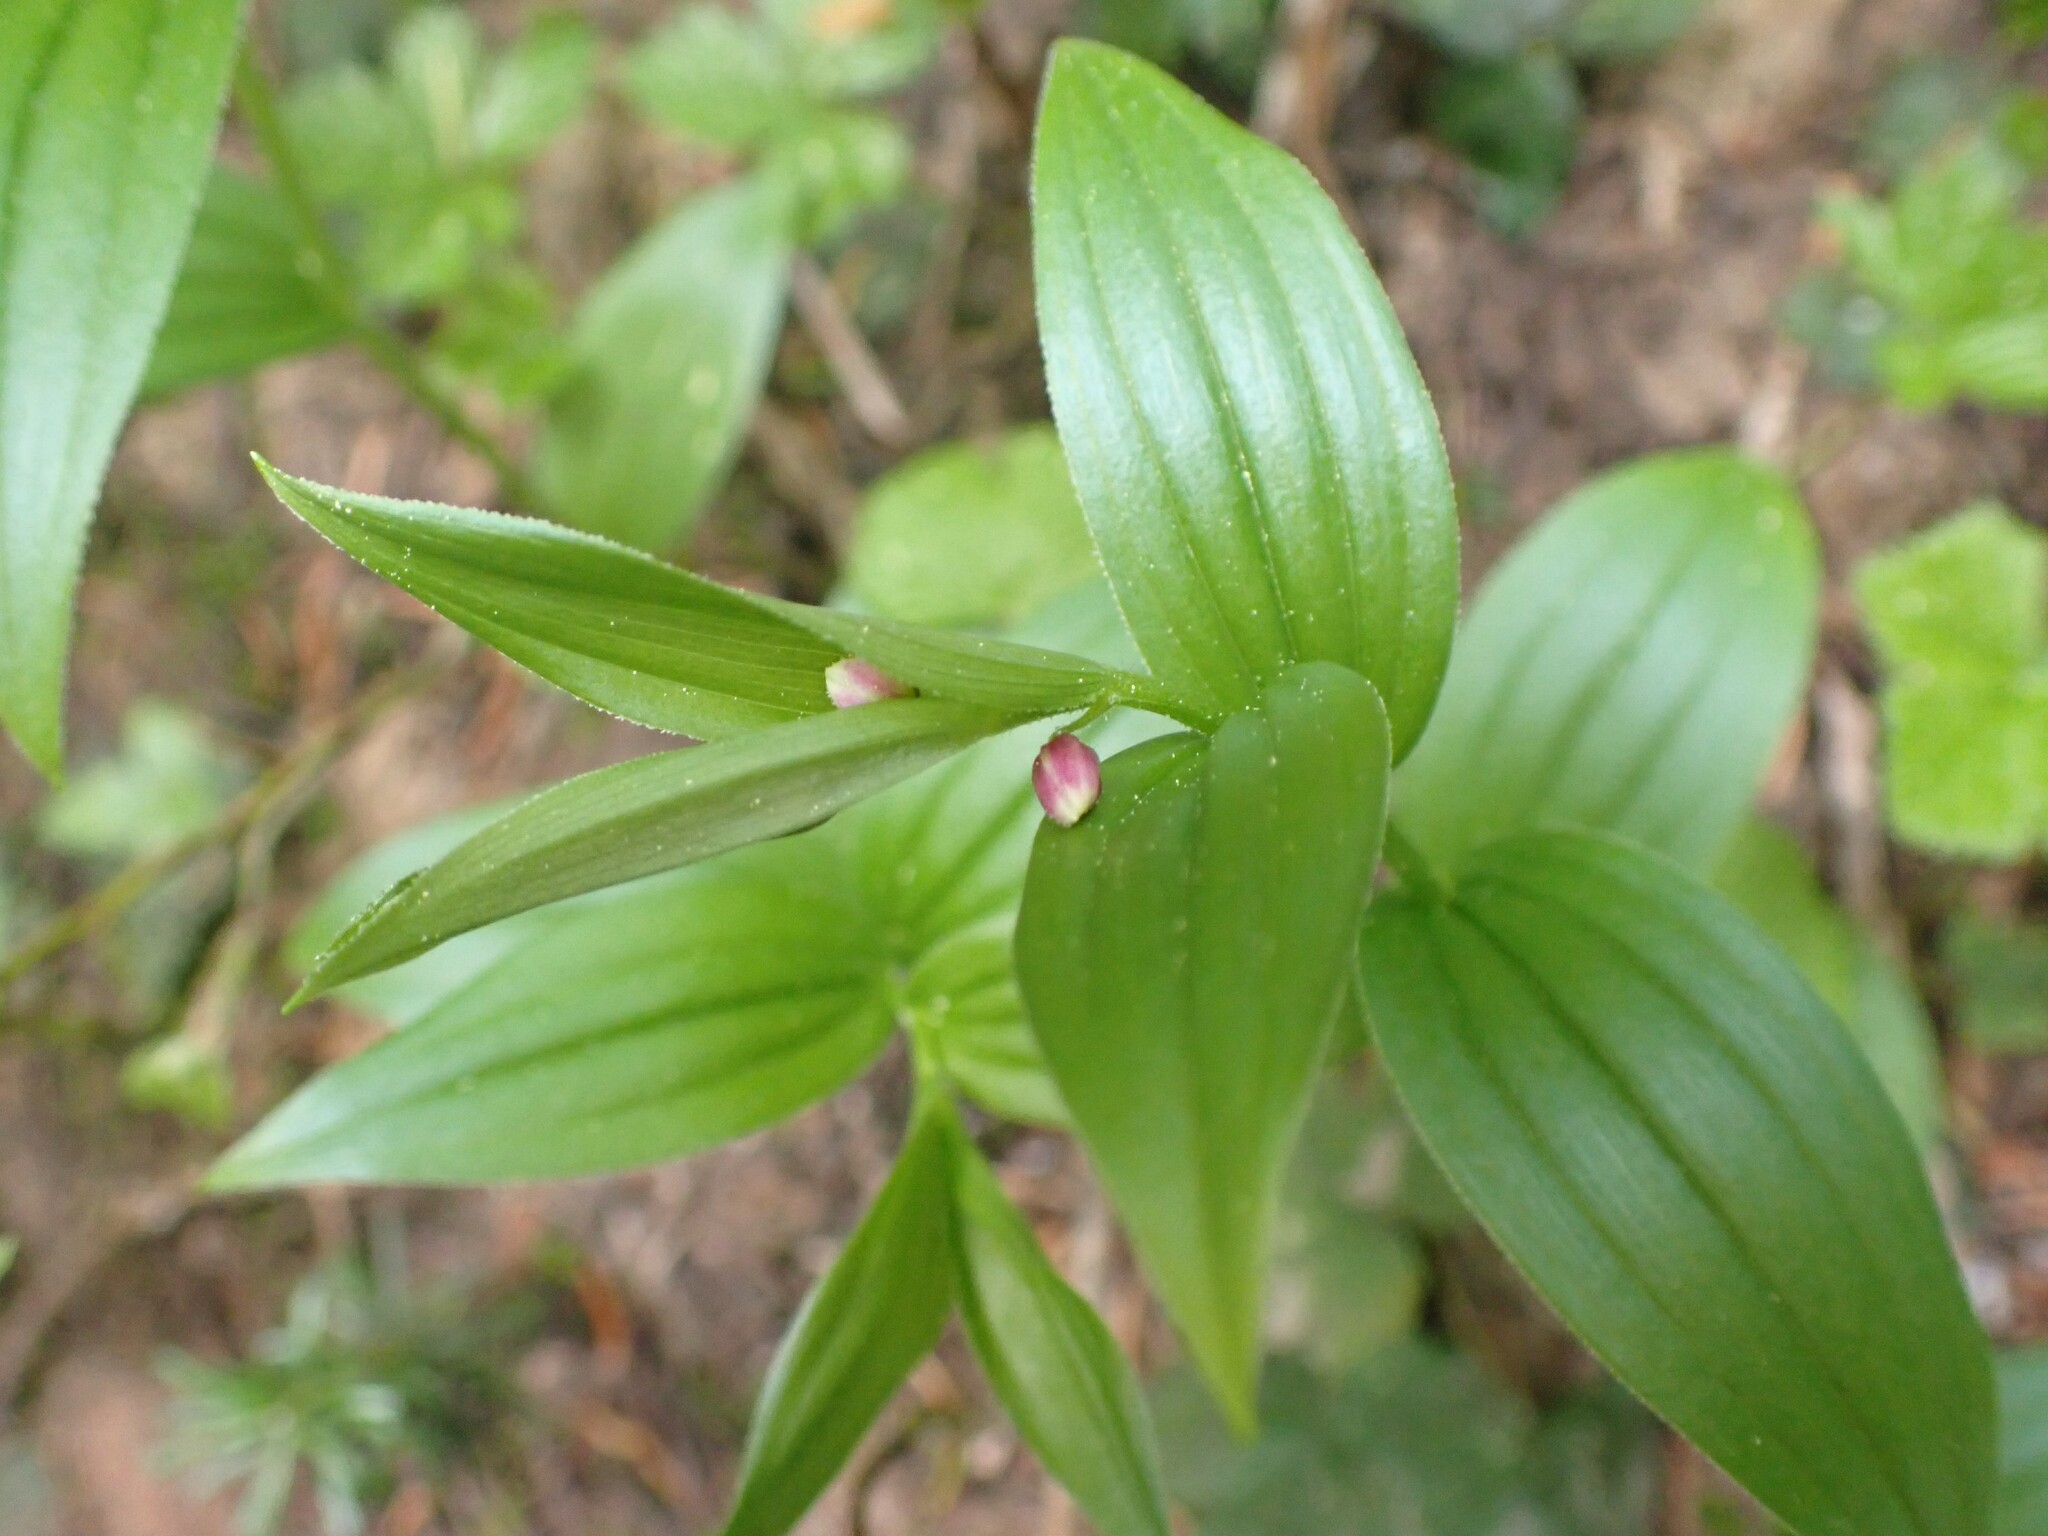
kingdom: Plantae
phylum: Tracheophyta
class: Liliopsida
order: Liliales
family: Liliaceae
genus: Streptopus
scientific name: Streptopus lanceolatus
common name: Rose mandarin
